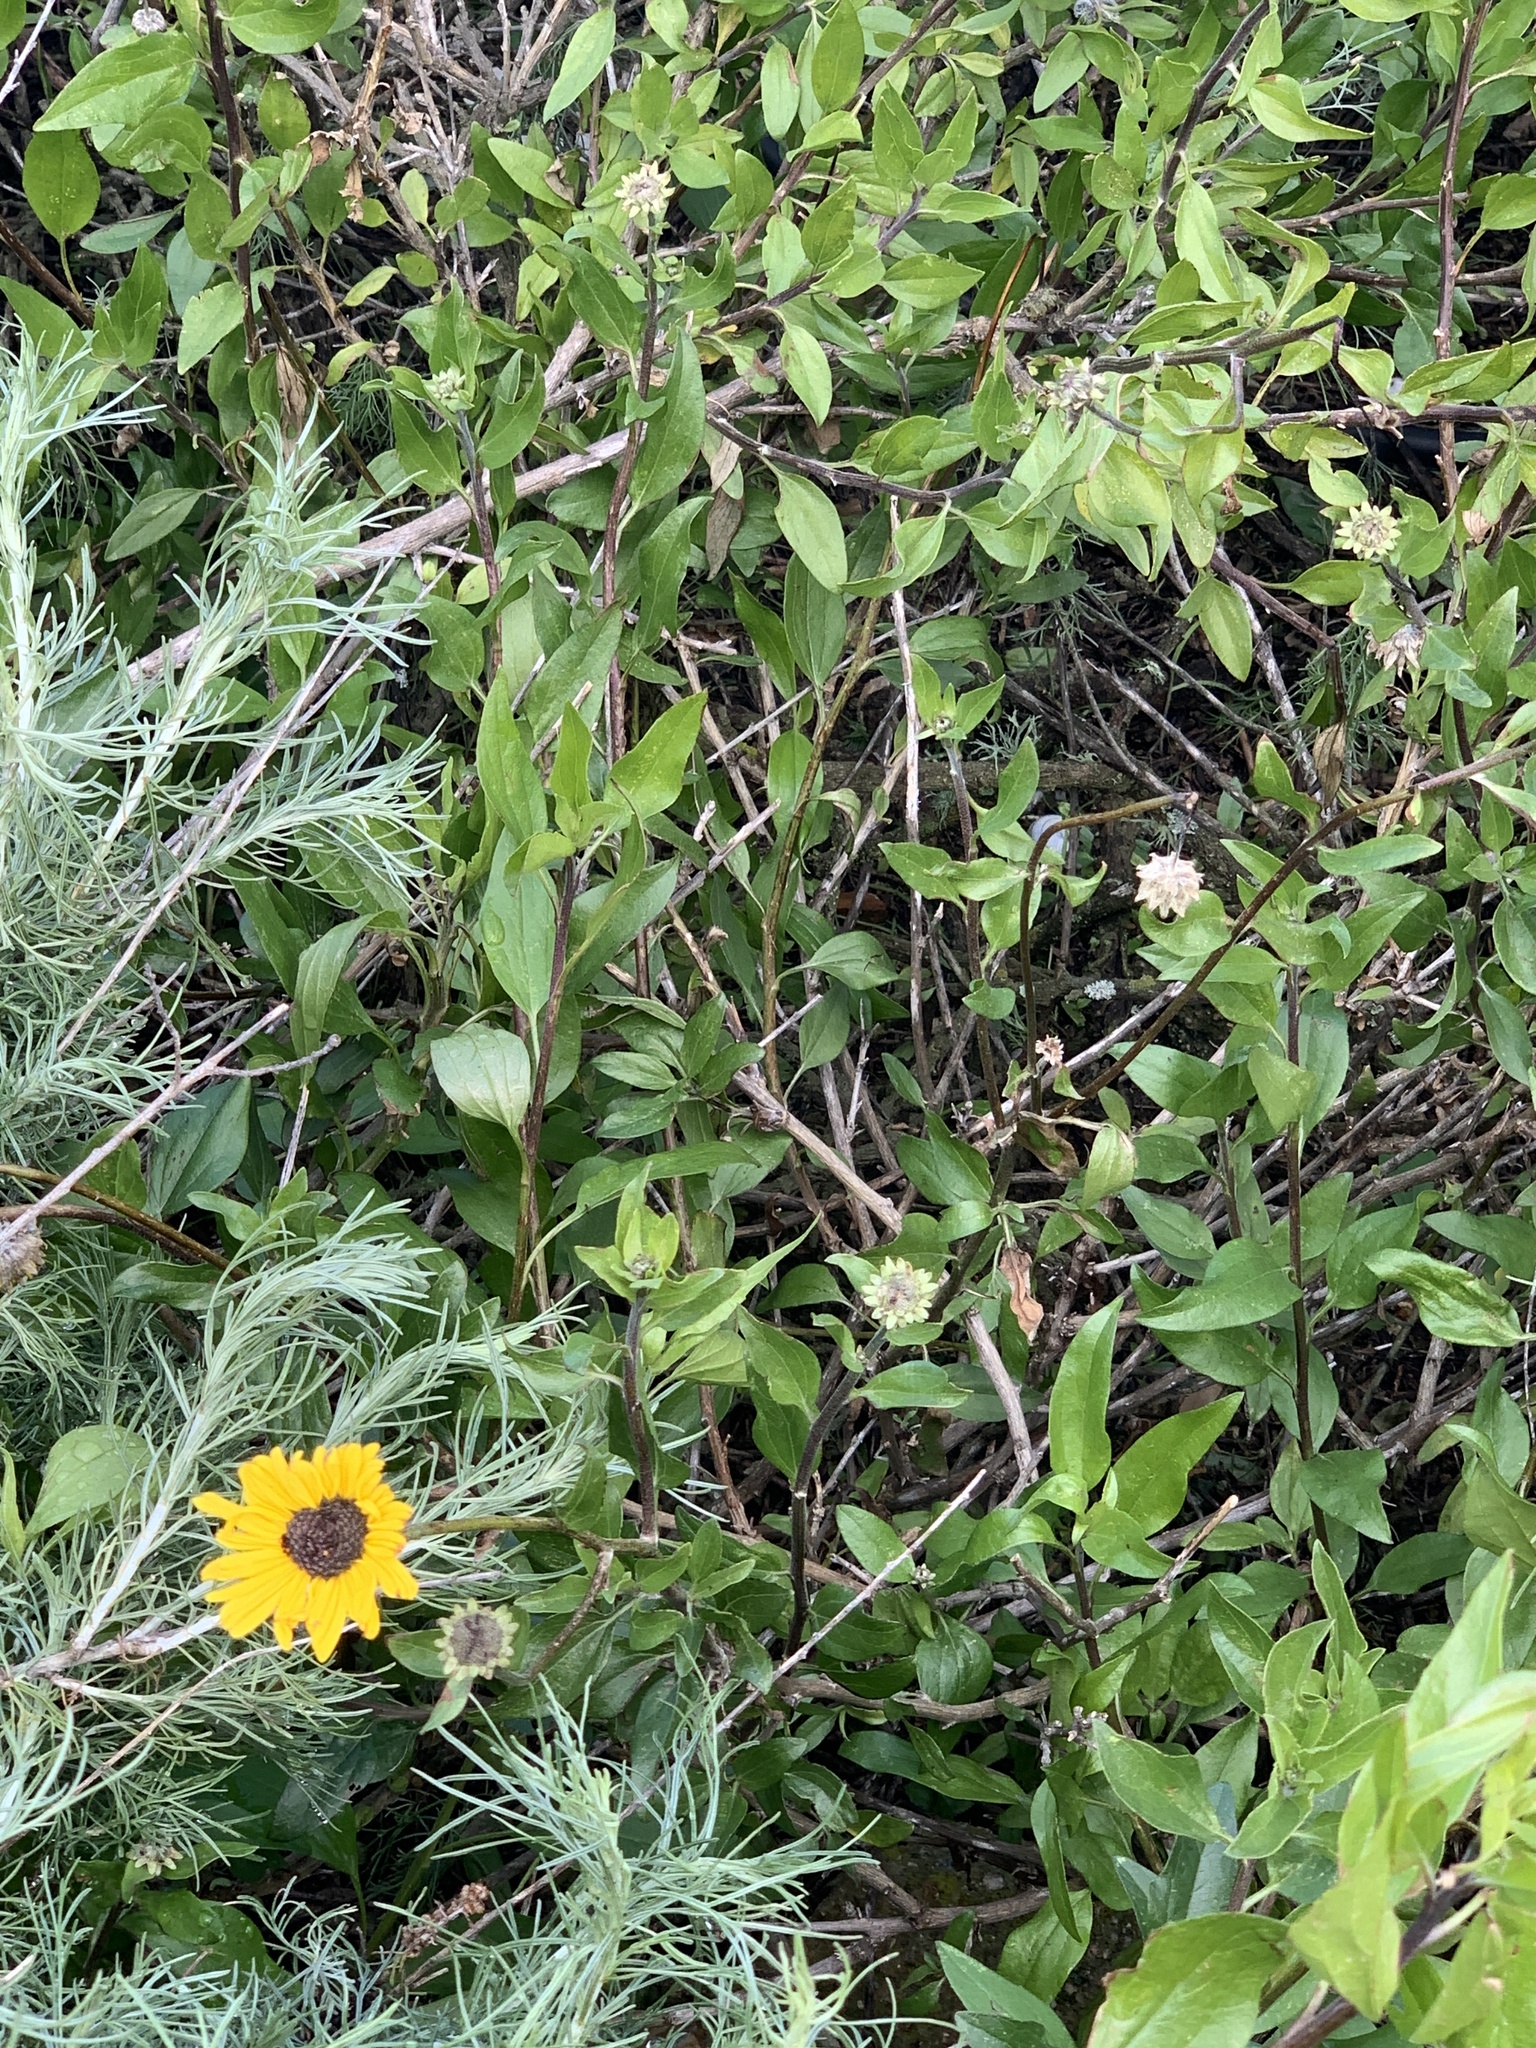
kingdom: Plantae
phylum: Tracheophyta
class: Magnoliopsida
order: Asterales
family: Asteraceae
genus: Encelia
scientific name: Encelia californica
